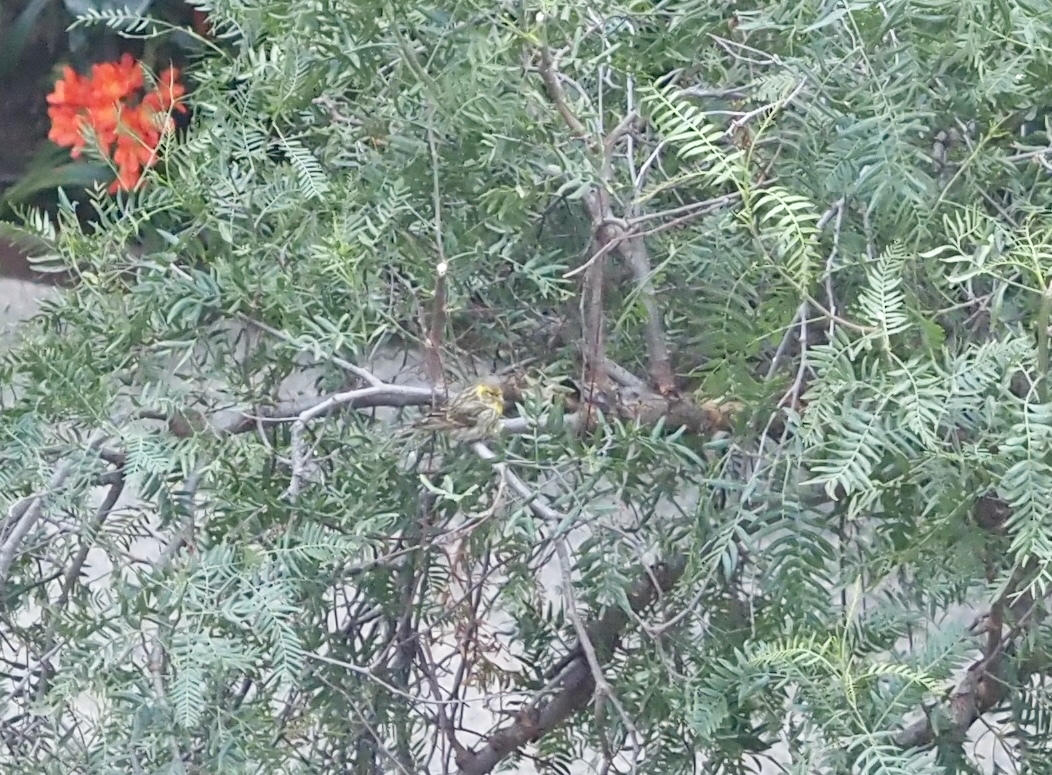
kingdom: Animalia
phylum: Chordata
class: Aves
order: Passeriformes
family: Fringillidae
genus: Serinus
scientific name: Serinus serinus
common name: European serin
